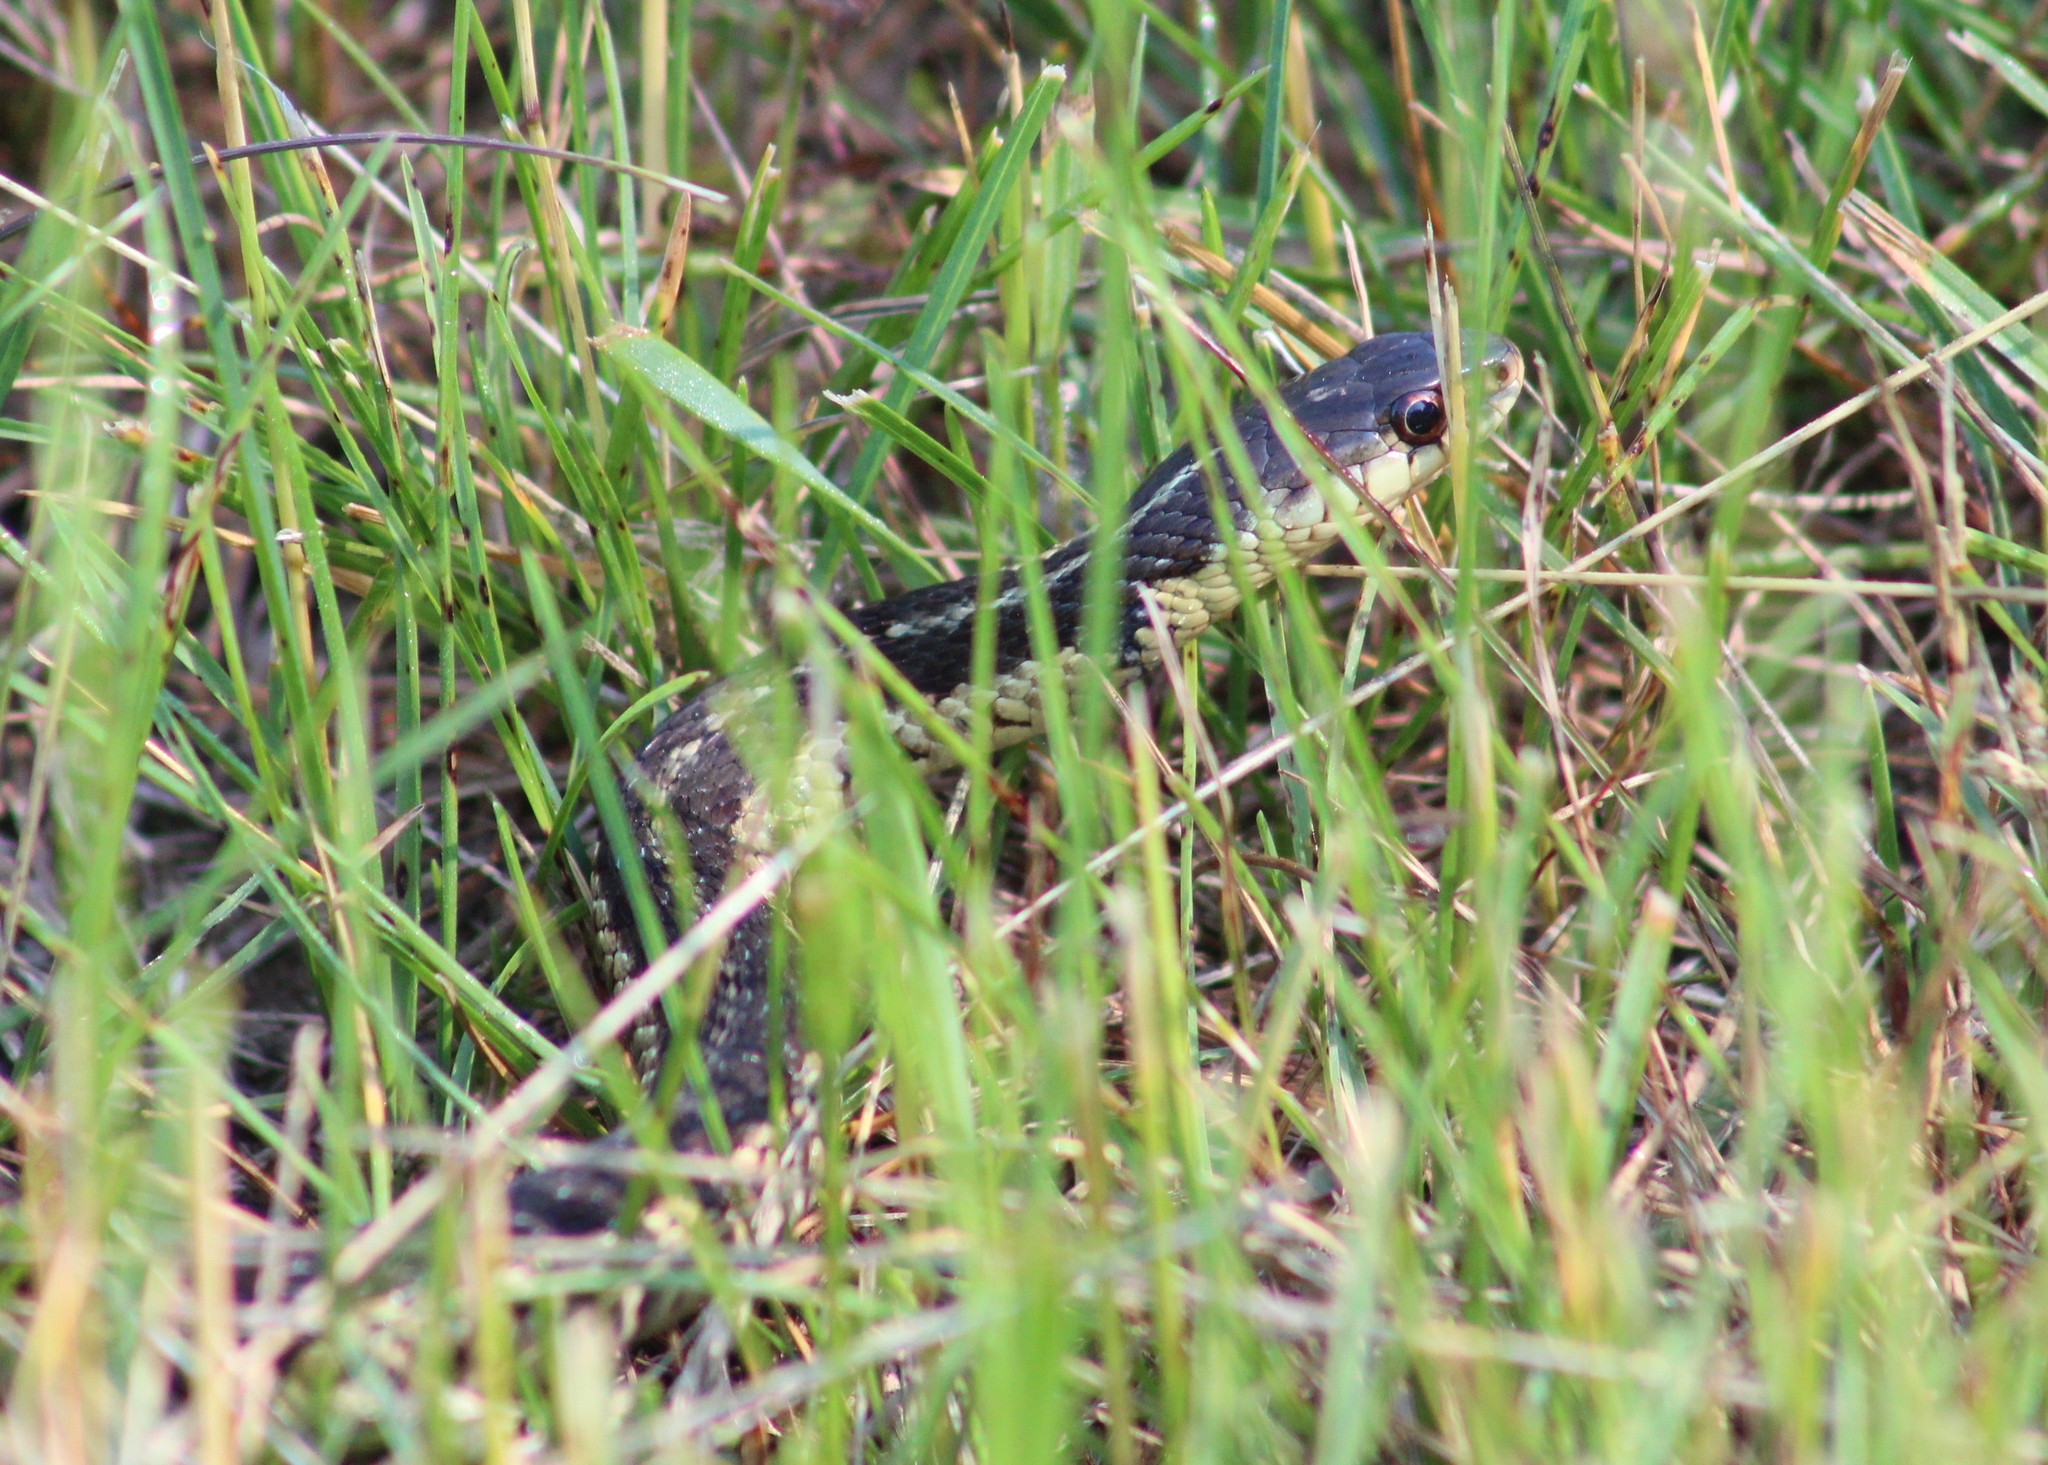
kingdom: Animalia
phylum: Chordata
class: Squamata
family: Colubridae
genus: Thamnophis
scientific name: Thamnophis sirtalis
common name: Common garter snake
